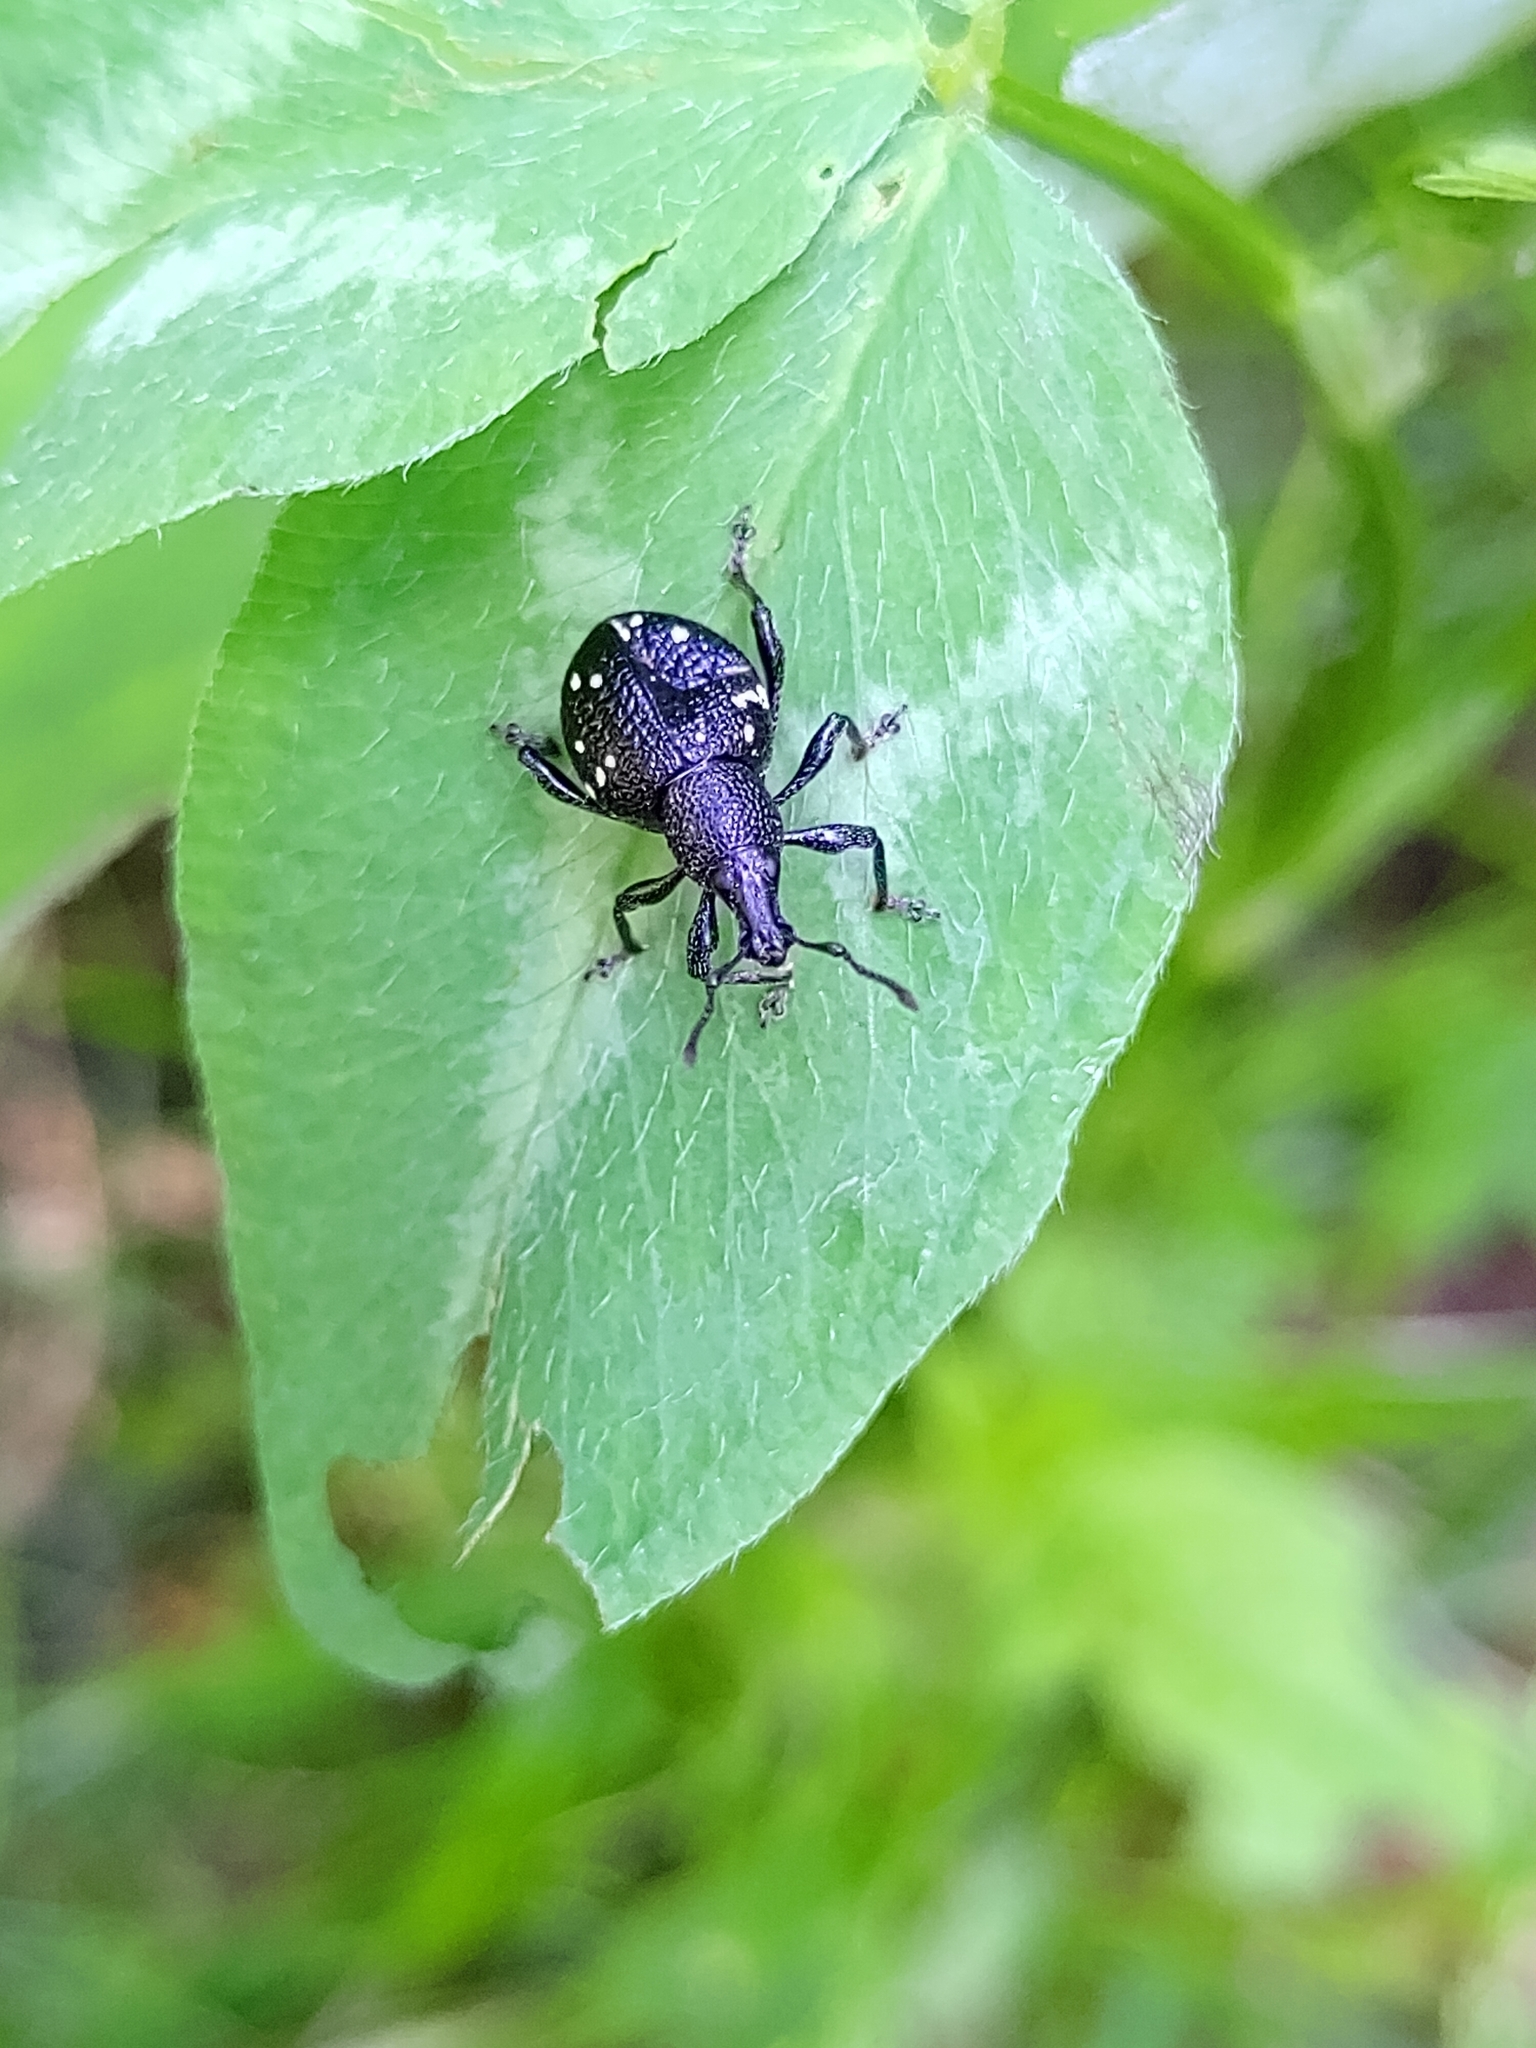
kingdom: Animalia
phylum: Arthropoda
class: Insecta
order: Coleoptera
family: Curculionidae
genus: Otiorhynchus
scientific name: Otiorhynchus gemmatus
